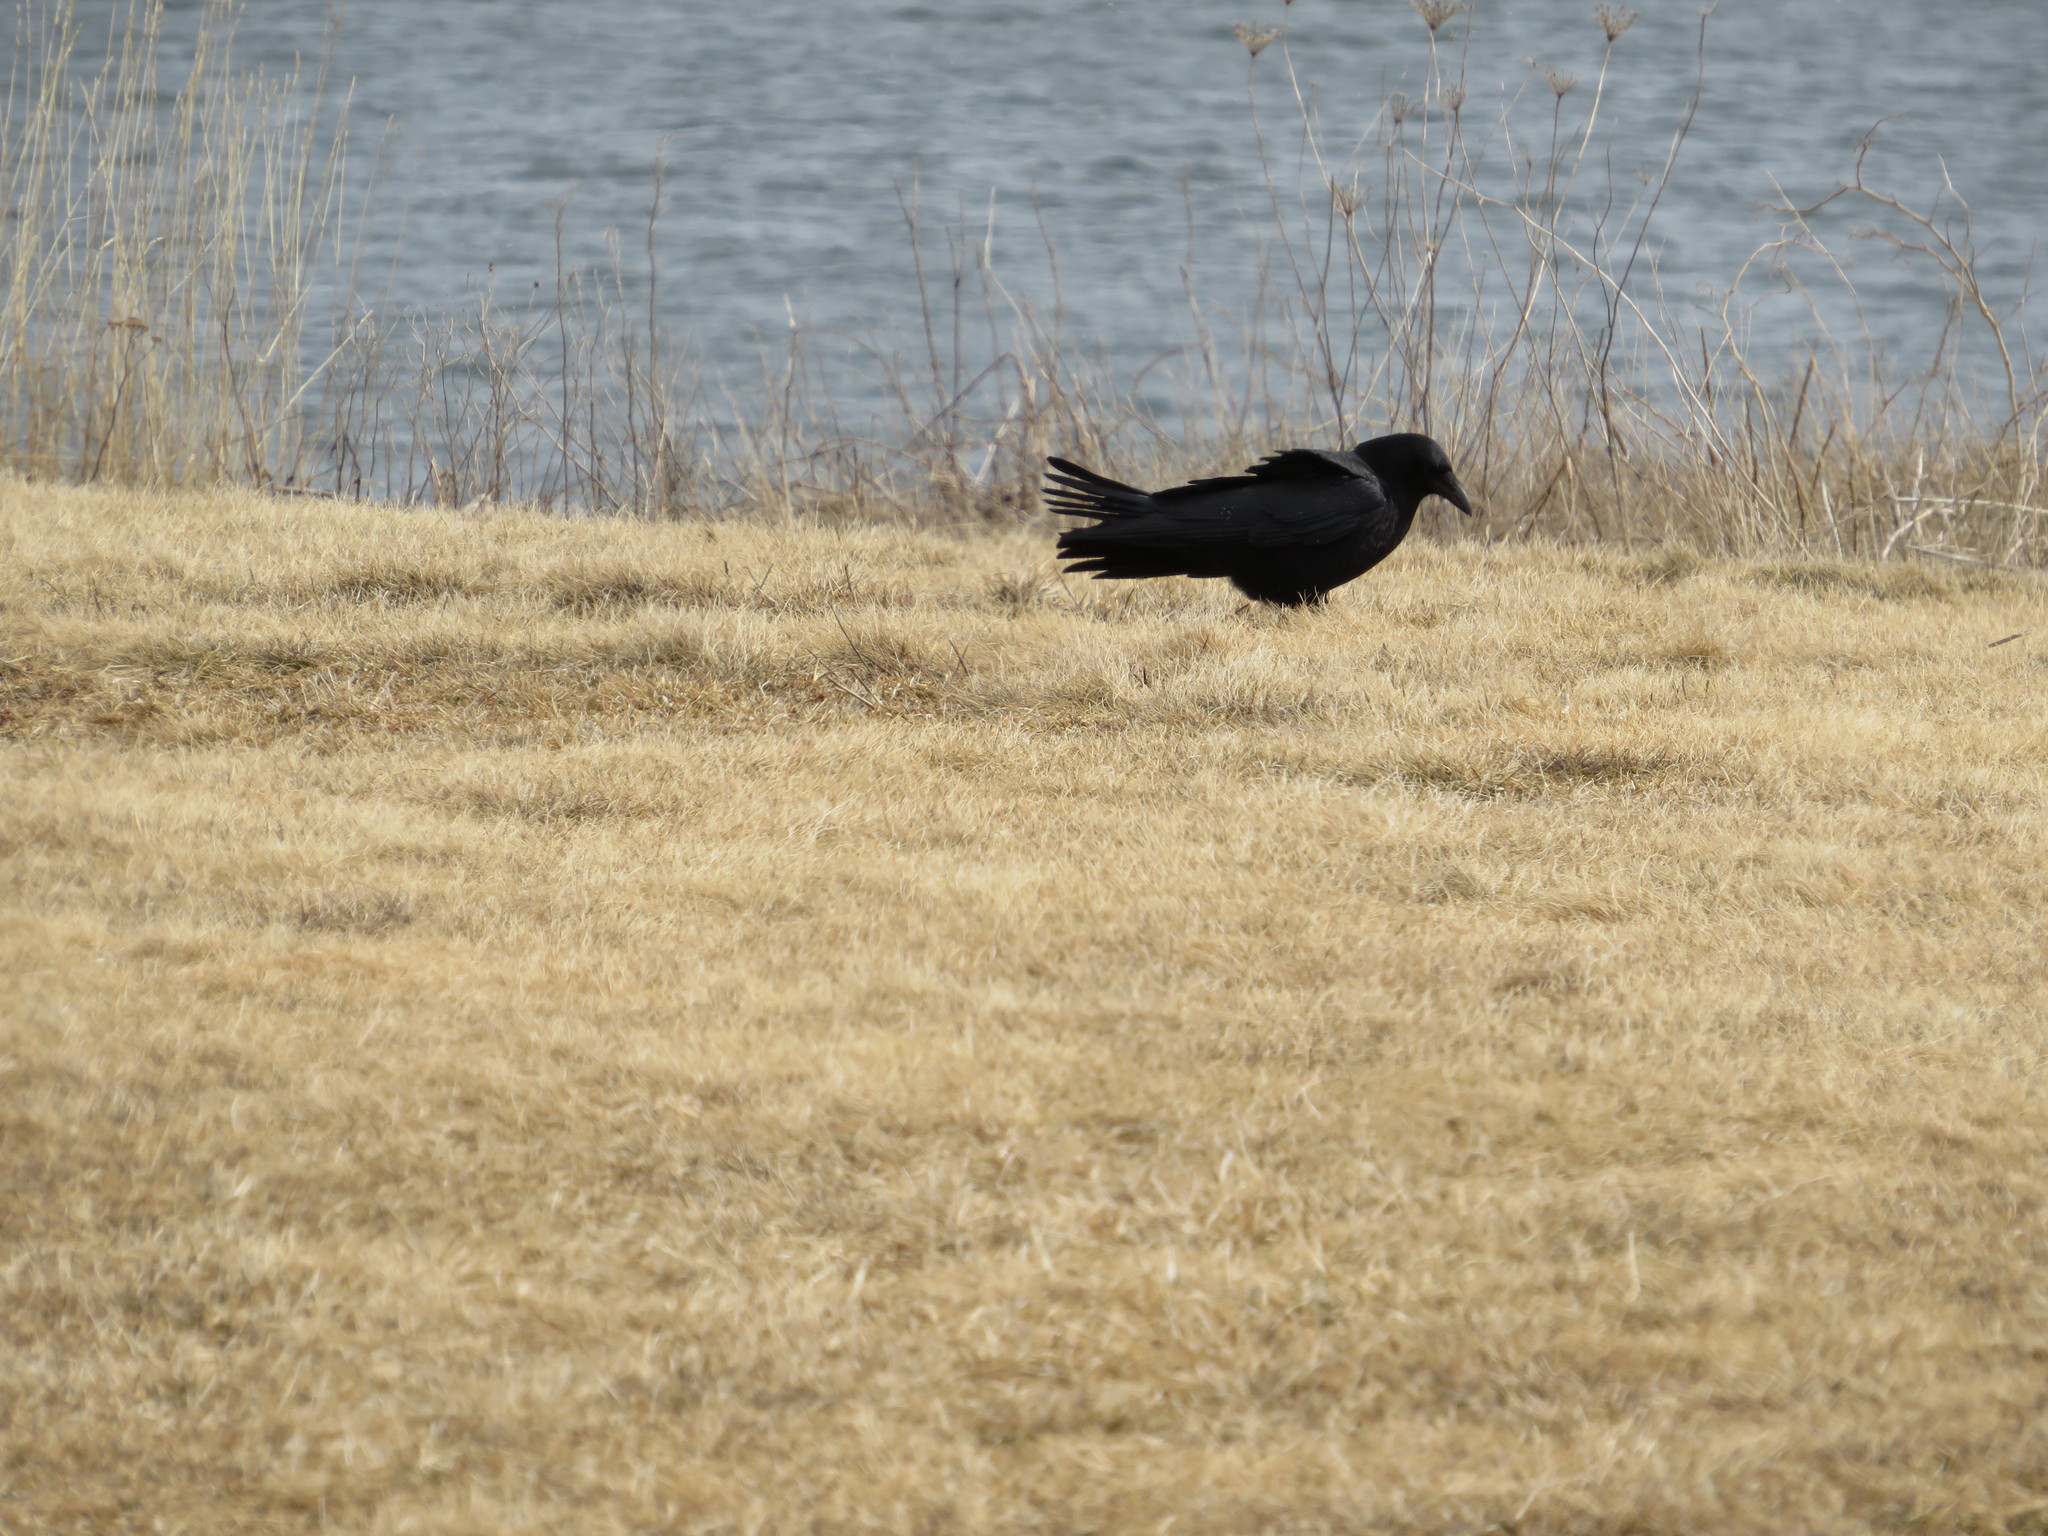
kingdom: Animalia
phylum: Chordata
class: Aves
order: Passeriformes
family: Corvidae
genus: Corvus
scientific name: Corvus brachyrhynchos
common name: American crow
